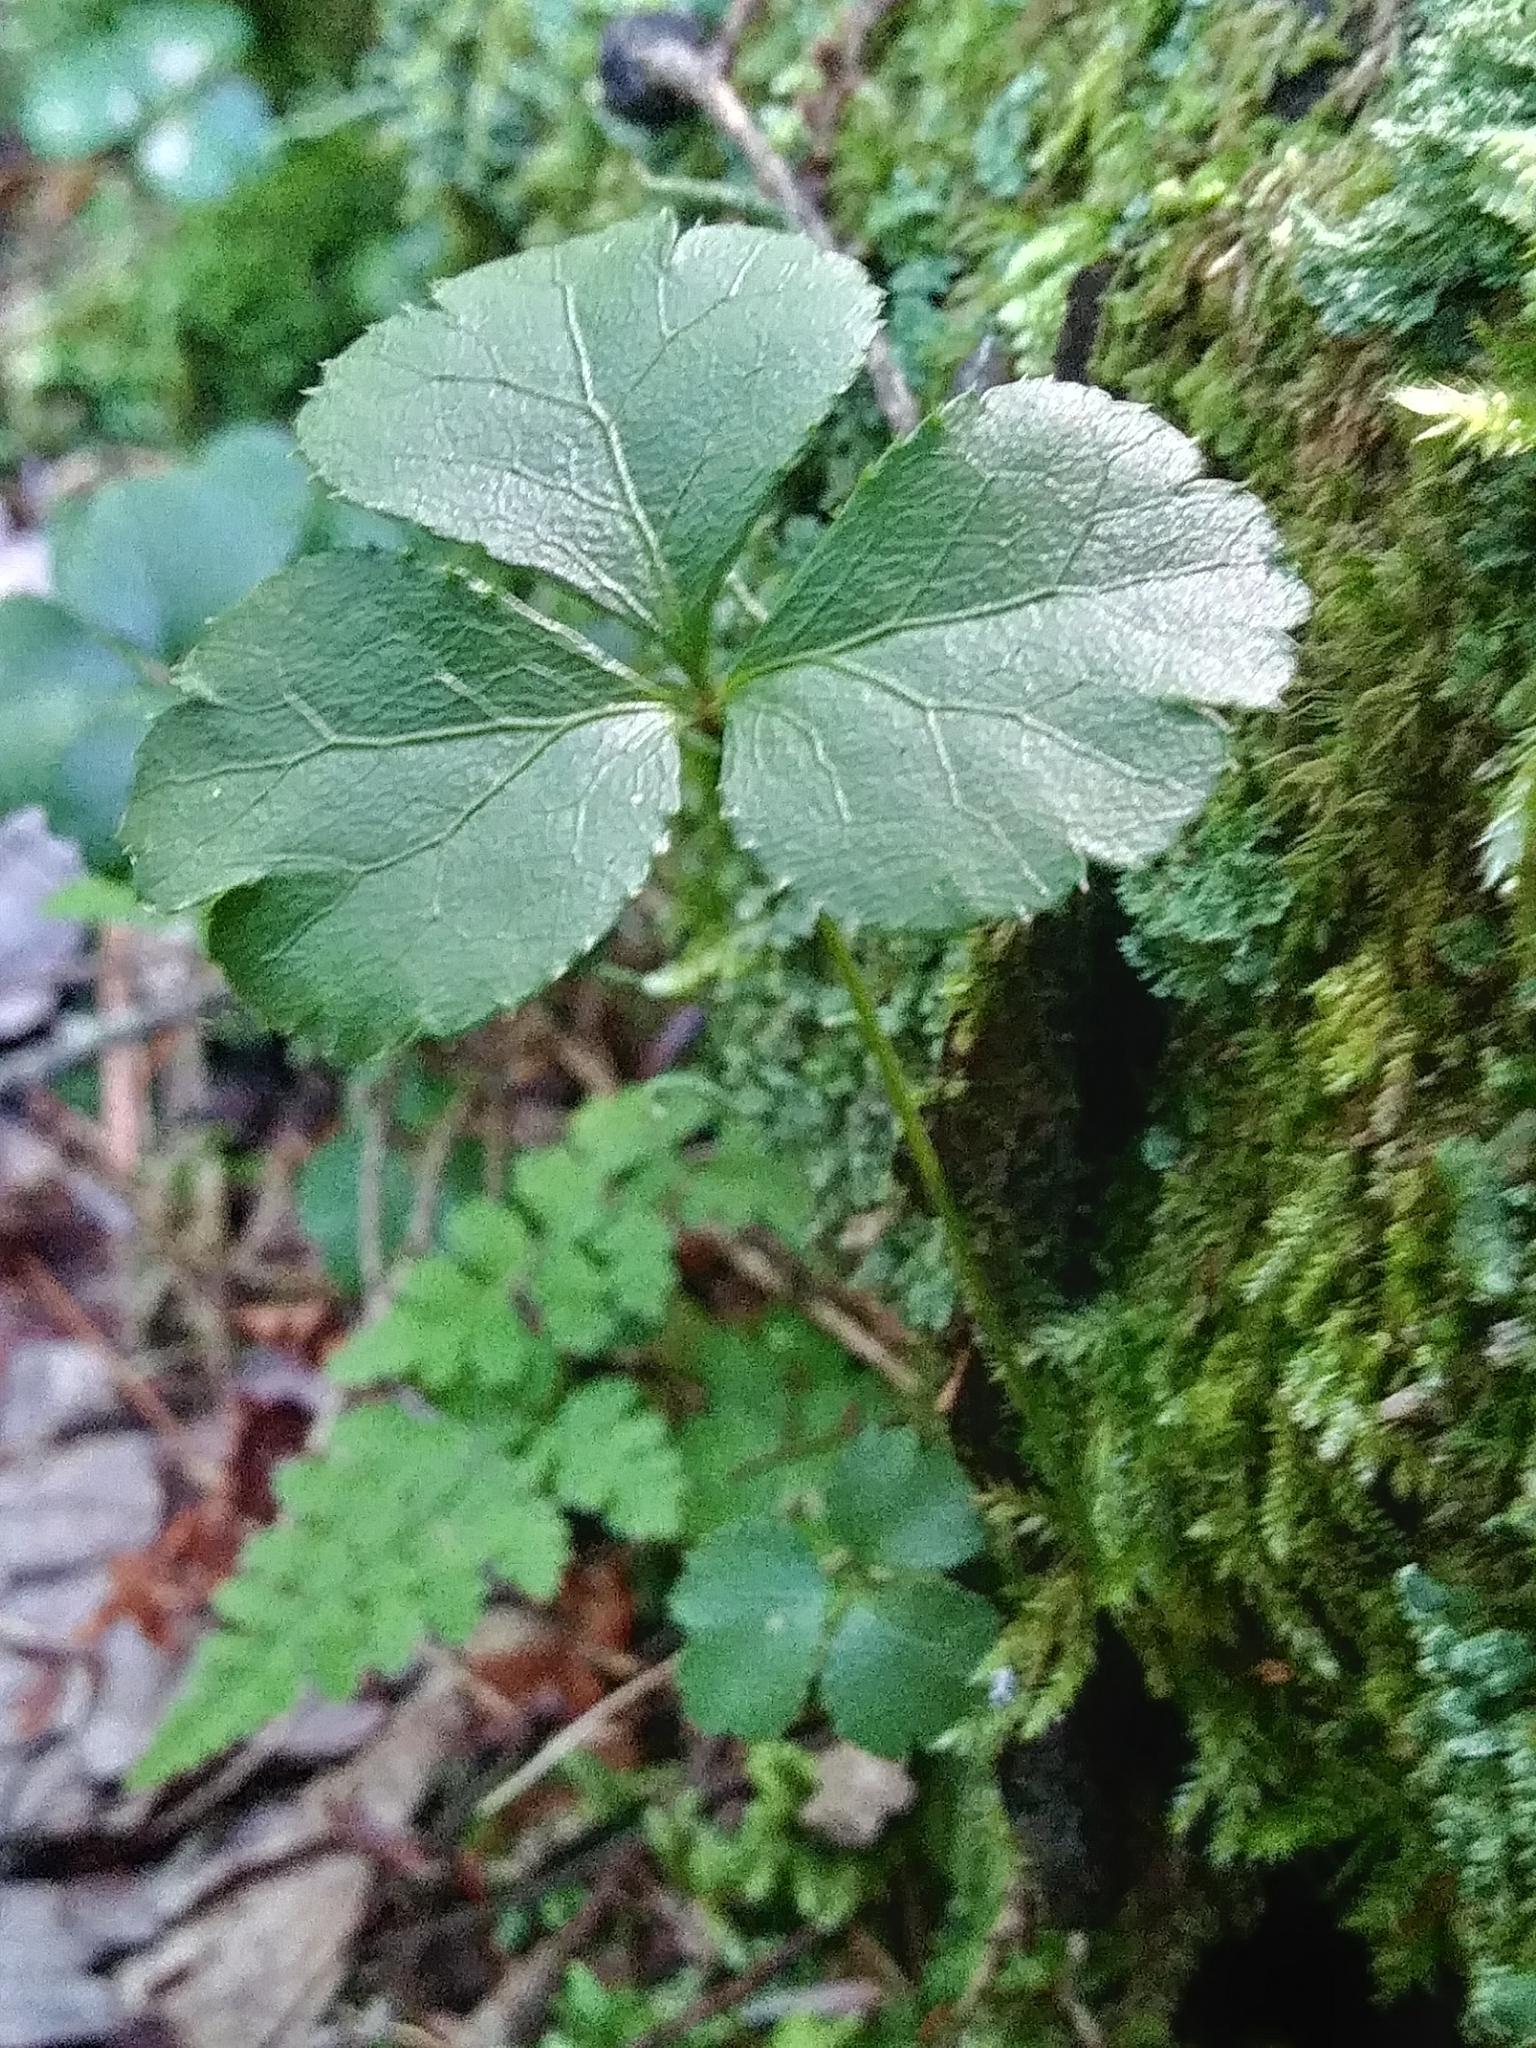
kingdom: Plantae
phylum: Tracheophyta
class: Magnoliopsida
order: Ranunculales
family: Ranunculaceae
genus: Coptis
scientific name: Coptis trifolia
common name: Canker-root
